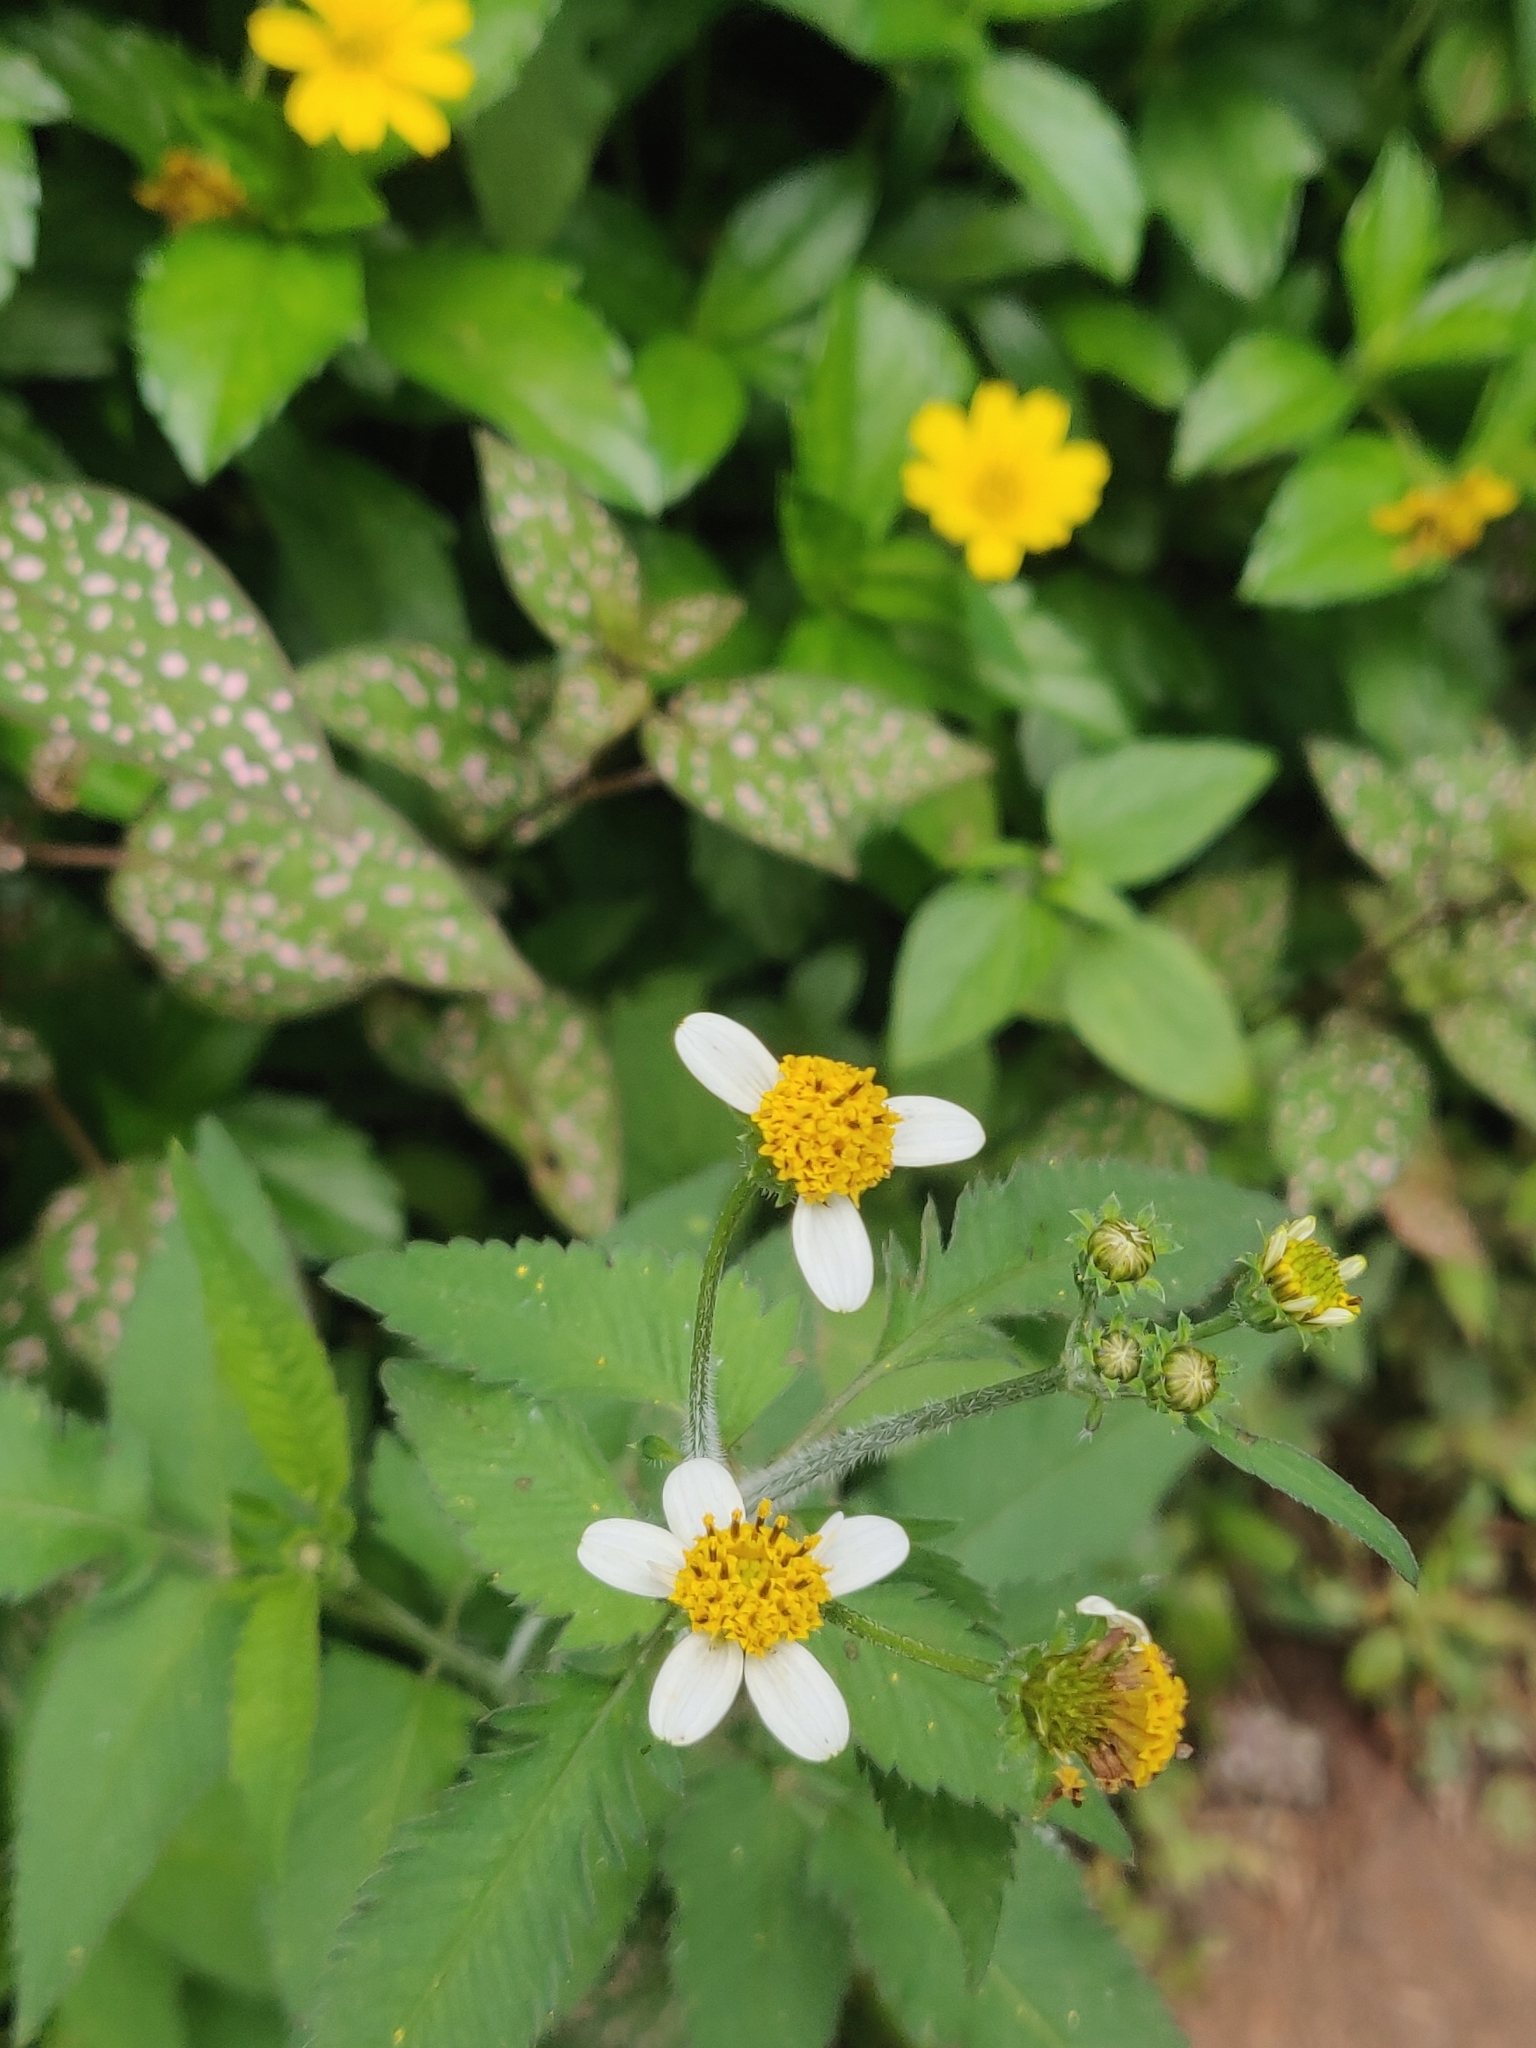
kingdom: Plantae
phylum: Tracheophyta
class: Magnoliopsida
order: Asterales
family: Asteraceae
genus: Bidens
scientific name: Bidens alba
